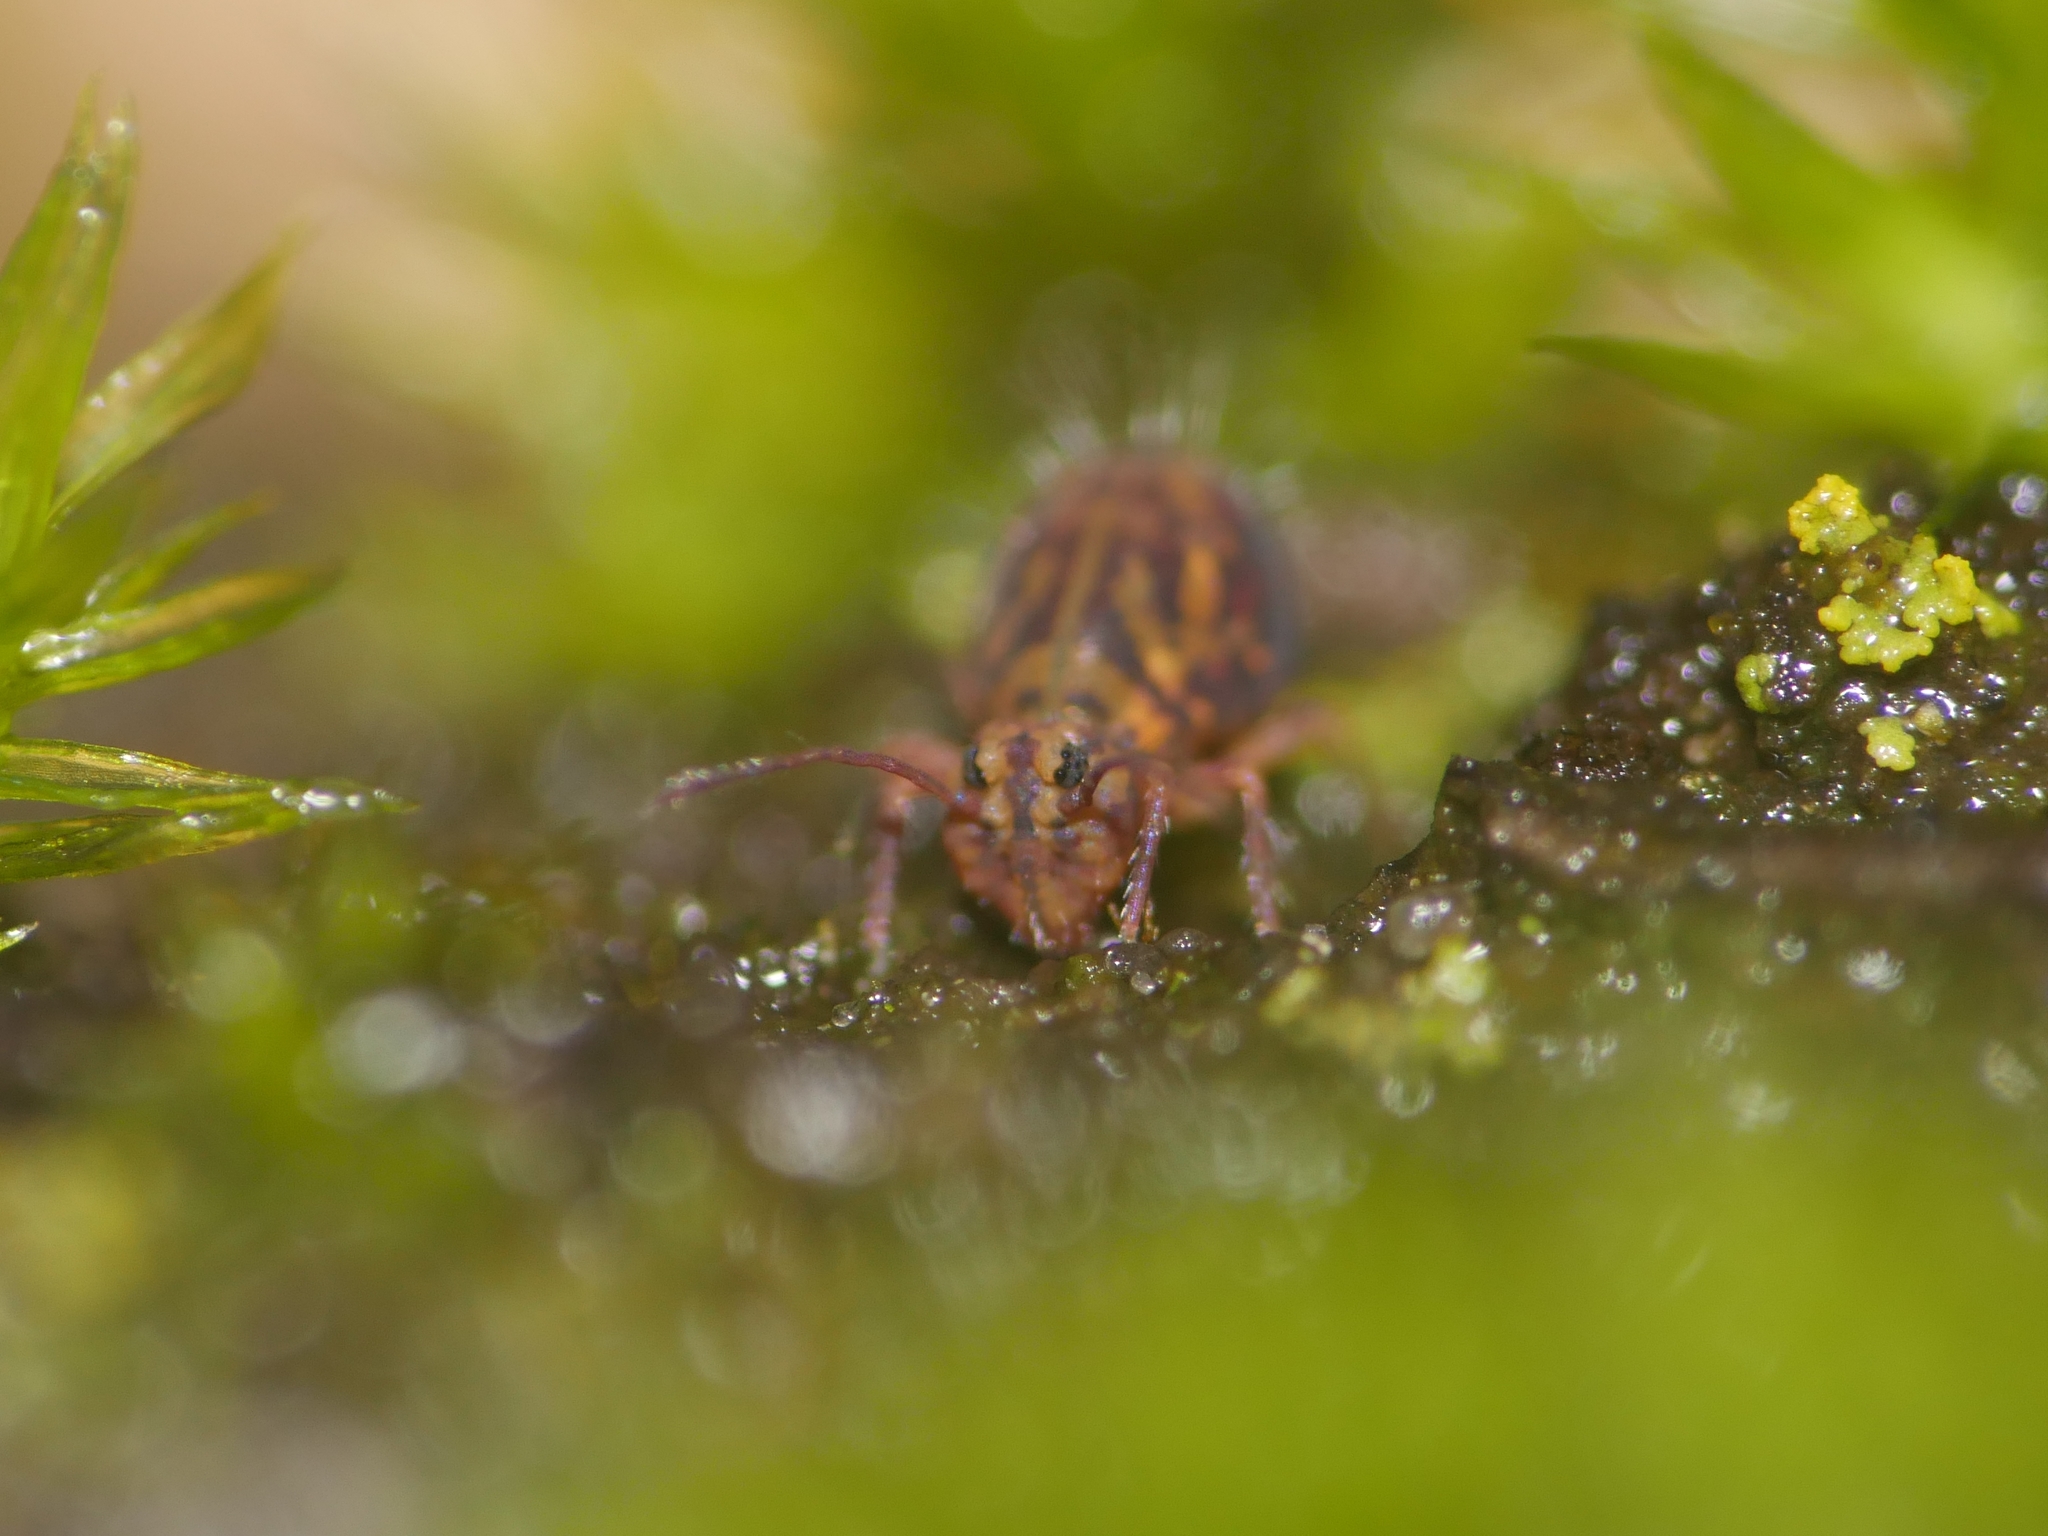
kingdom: Animalia
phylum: Arthropoda
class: Collembola
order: Symphypleona
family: Dicyrtomidae
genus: Dicyrtomina
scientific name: Dicyrtomina ornata
